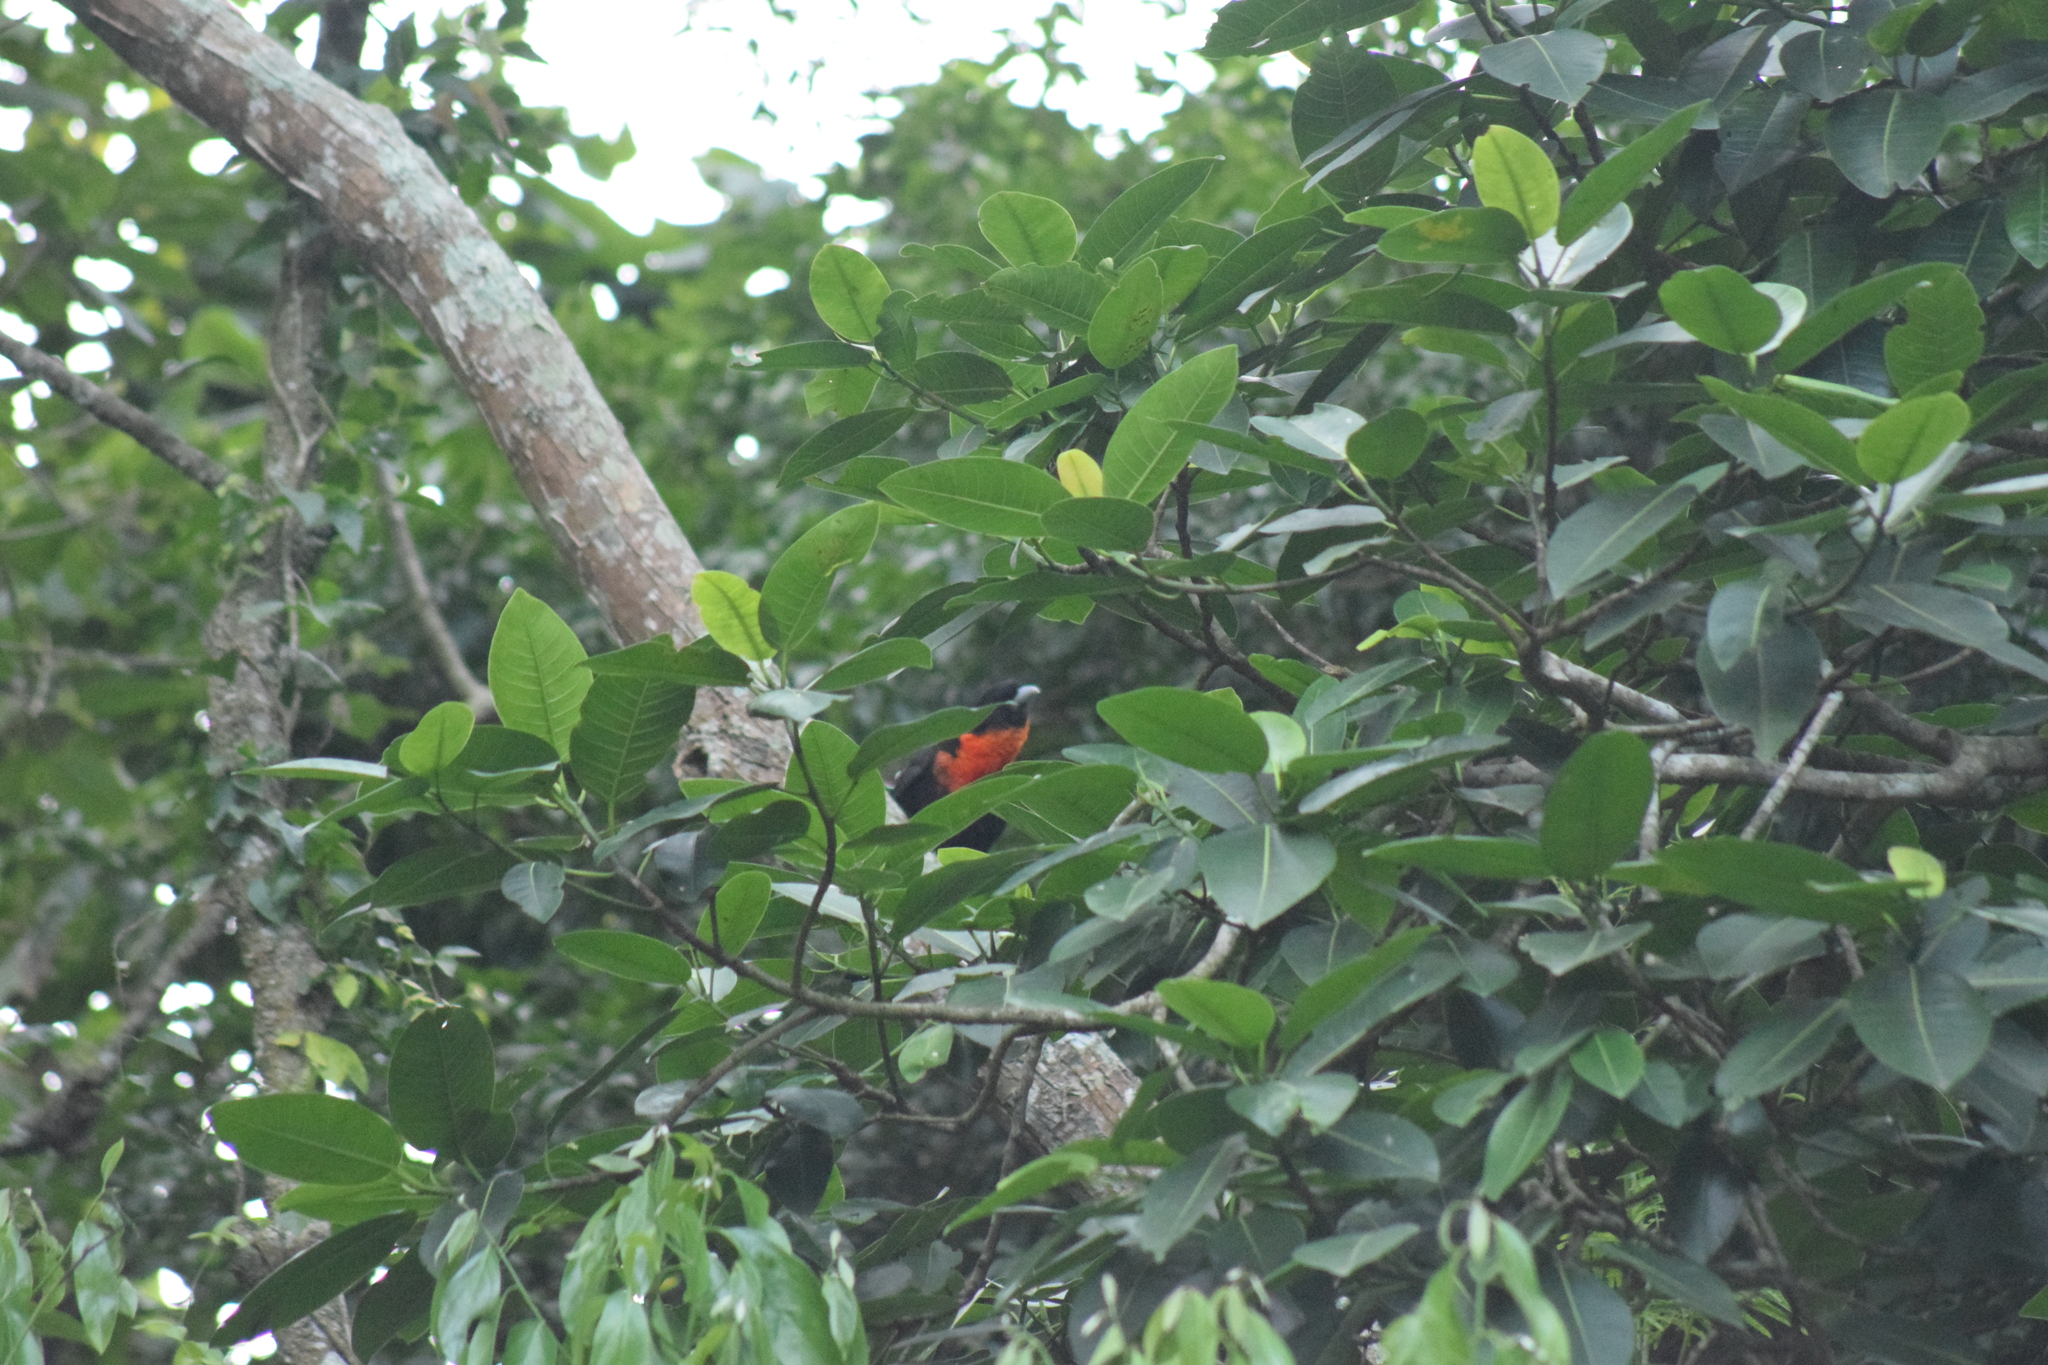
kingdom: Animalia
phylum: Chordata
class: Aves
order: Passeriformes
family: Cotingidae
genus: Pyroderus
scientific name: Pyroderus scutatus
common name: Red-ruffed fruitcrow
